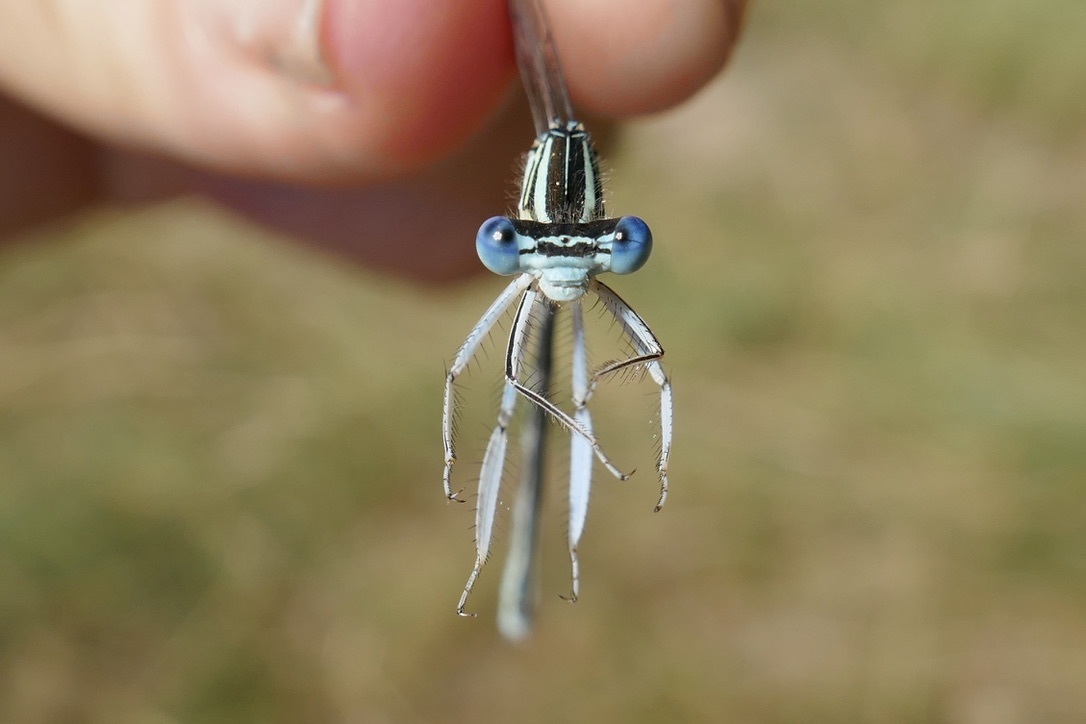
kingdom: Animalia
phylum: Arthropoda
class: Insecta
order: Odonata
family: Platycnemididae
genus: Platycnemis
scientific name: Platycnemis pennipes
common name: White-legged damselfly
